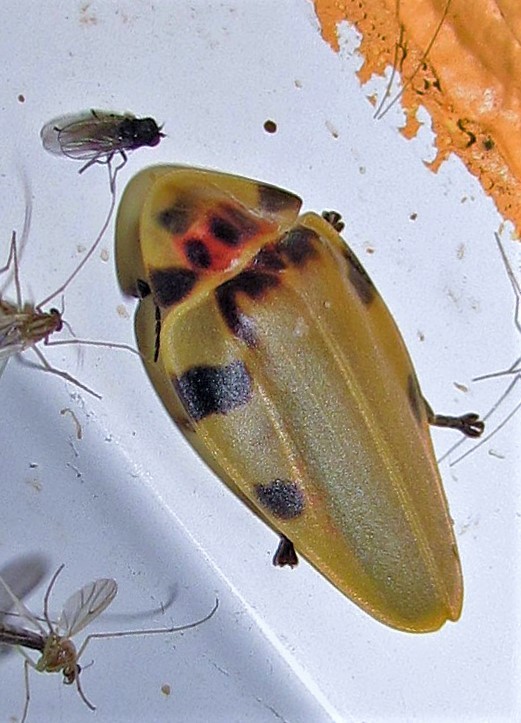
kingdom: Animalia
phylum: Arthropoda
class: Insecta
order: Coleoptera
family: Lampyridae
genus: Aspisoma
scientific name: Aspisoma sticticum
